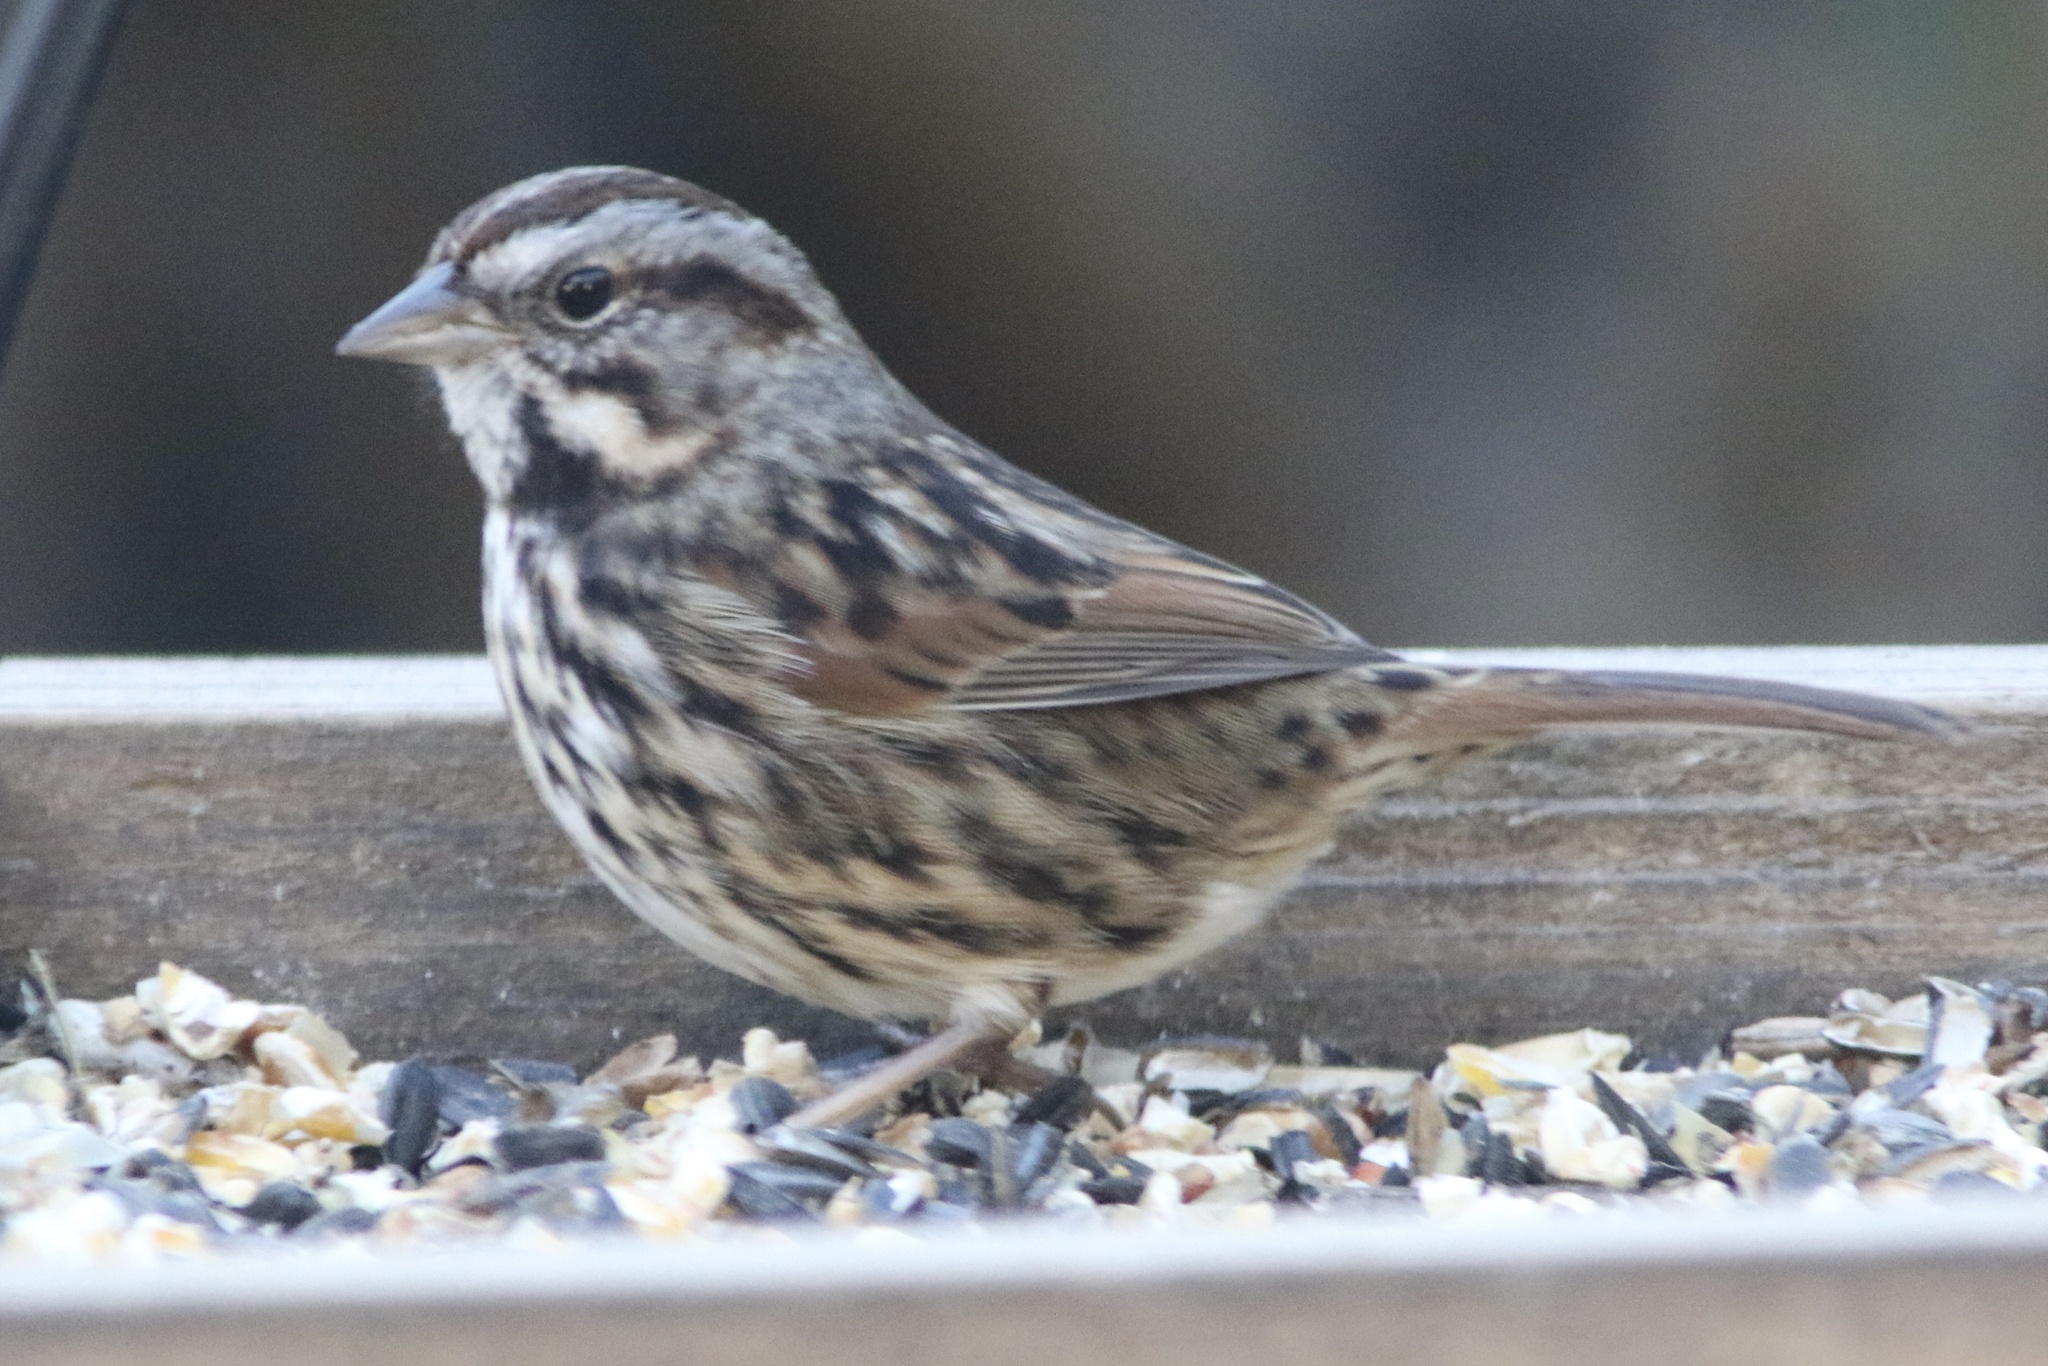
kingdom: Animalia
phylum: Chordata
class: Aves
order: Passeriformes
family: Passerellidae
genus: Melospiza
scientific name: Melospiza melodia
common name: Song sparrow
